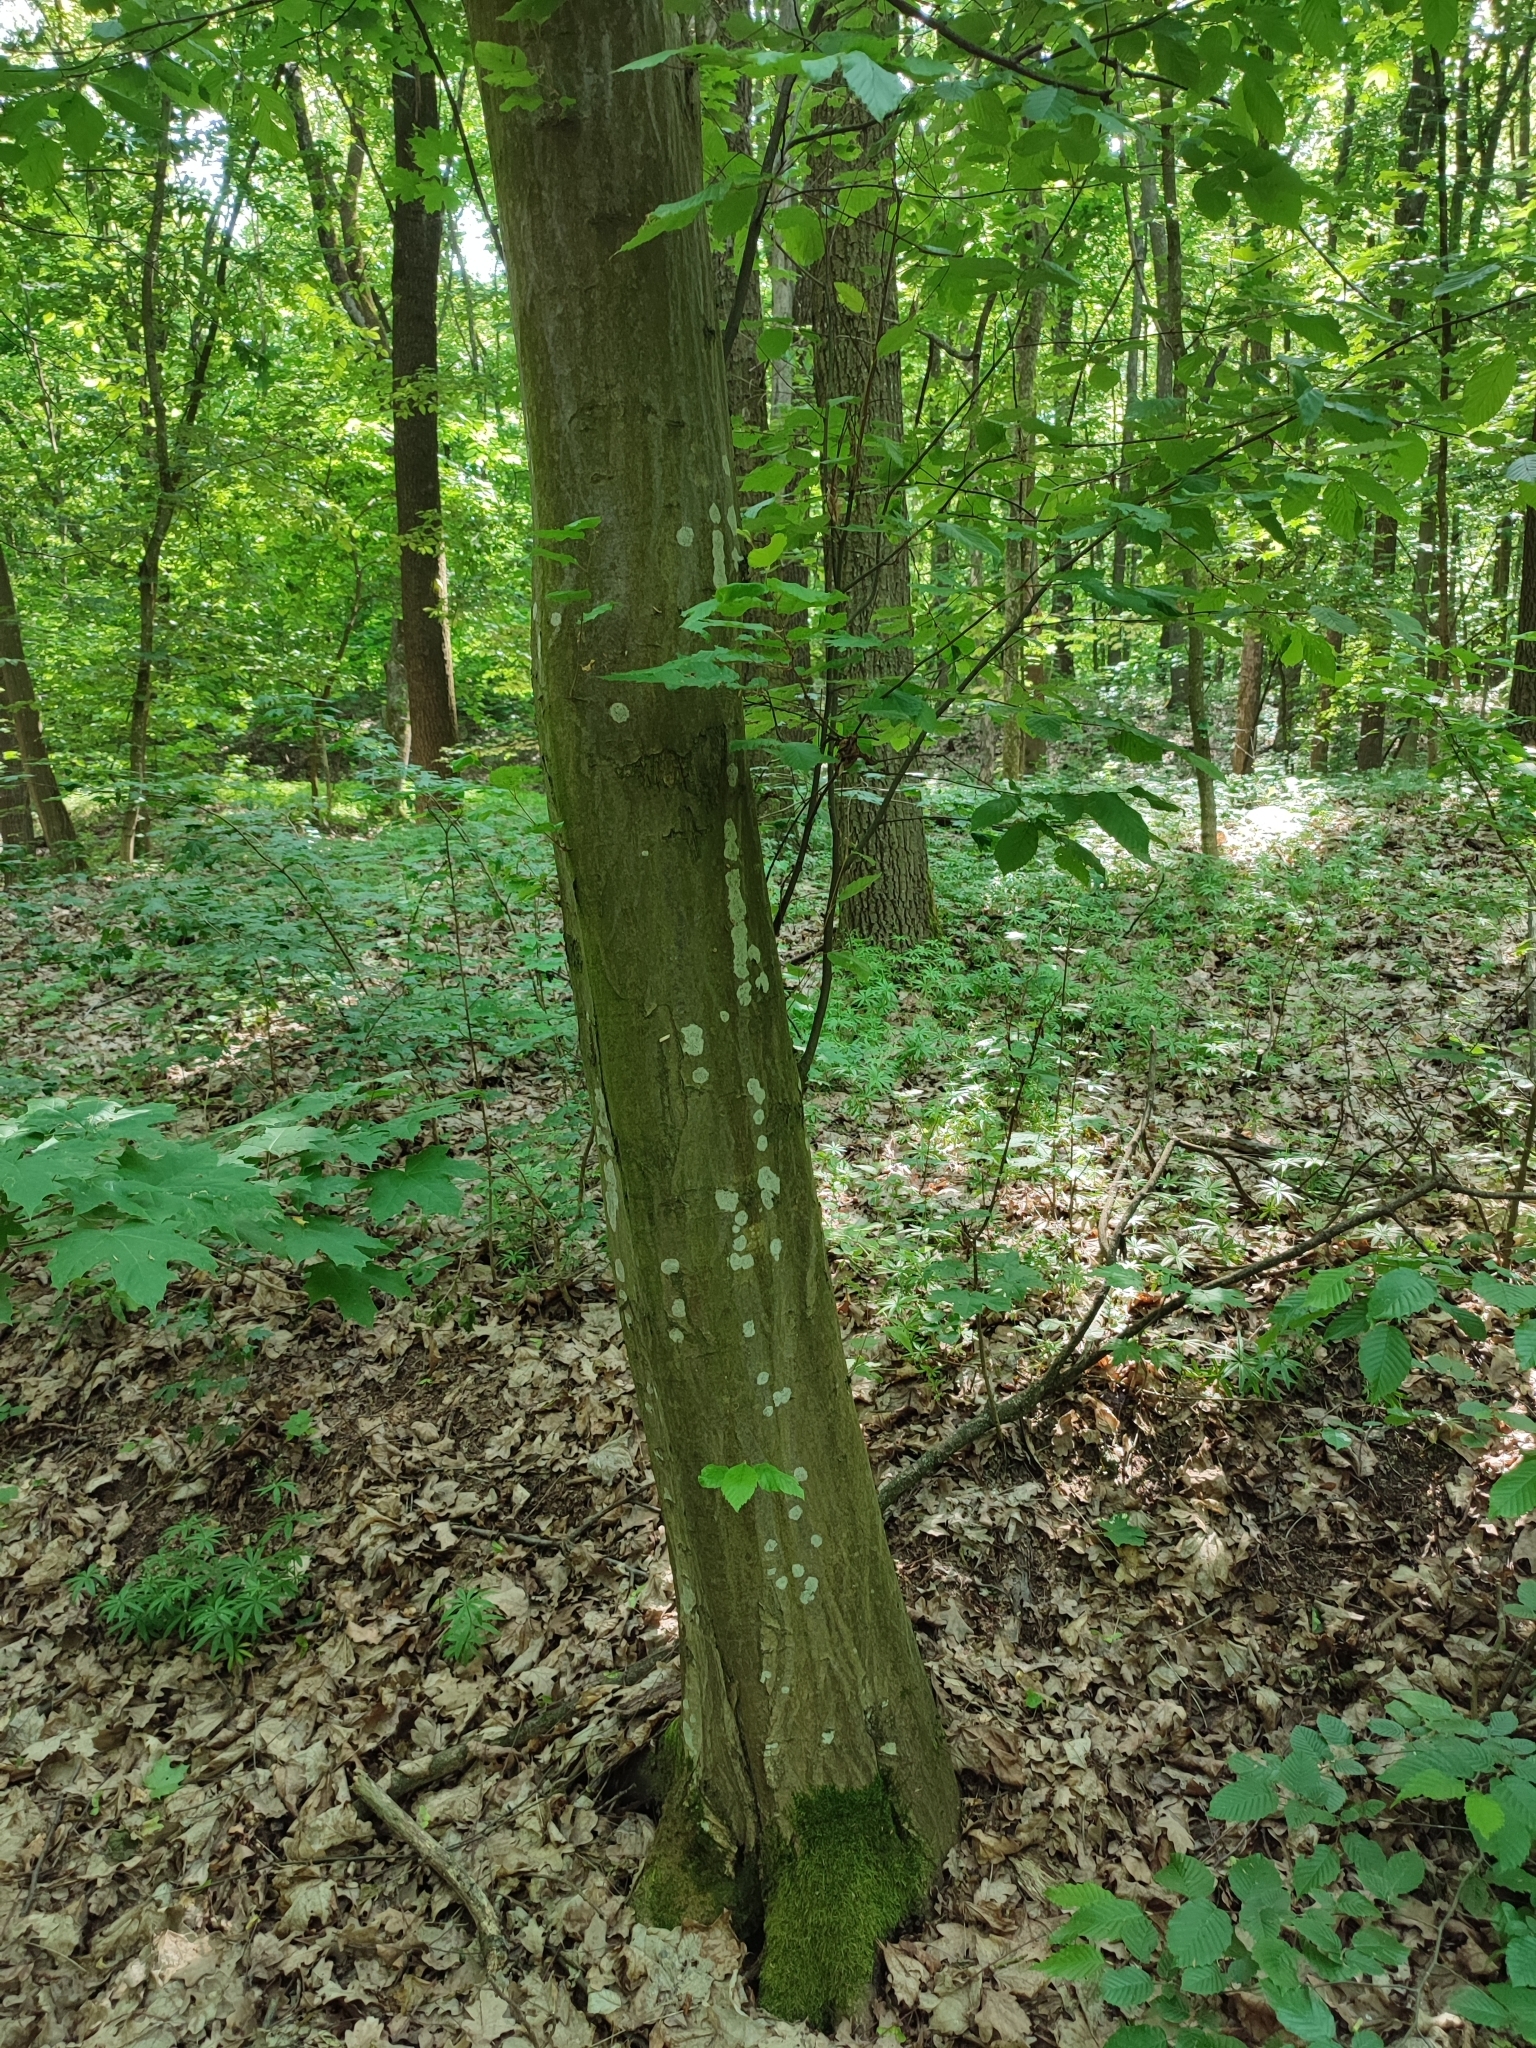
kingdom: Plantae
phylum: Tracheophyta
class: Magnoliopsida
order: Fagales
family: Betulaceae
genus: Carpinus
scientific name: Carpinus betulus
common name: Hornbeam
